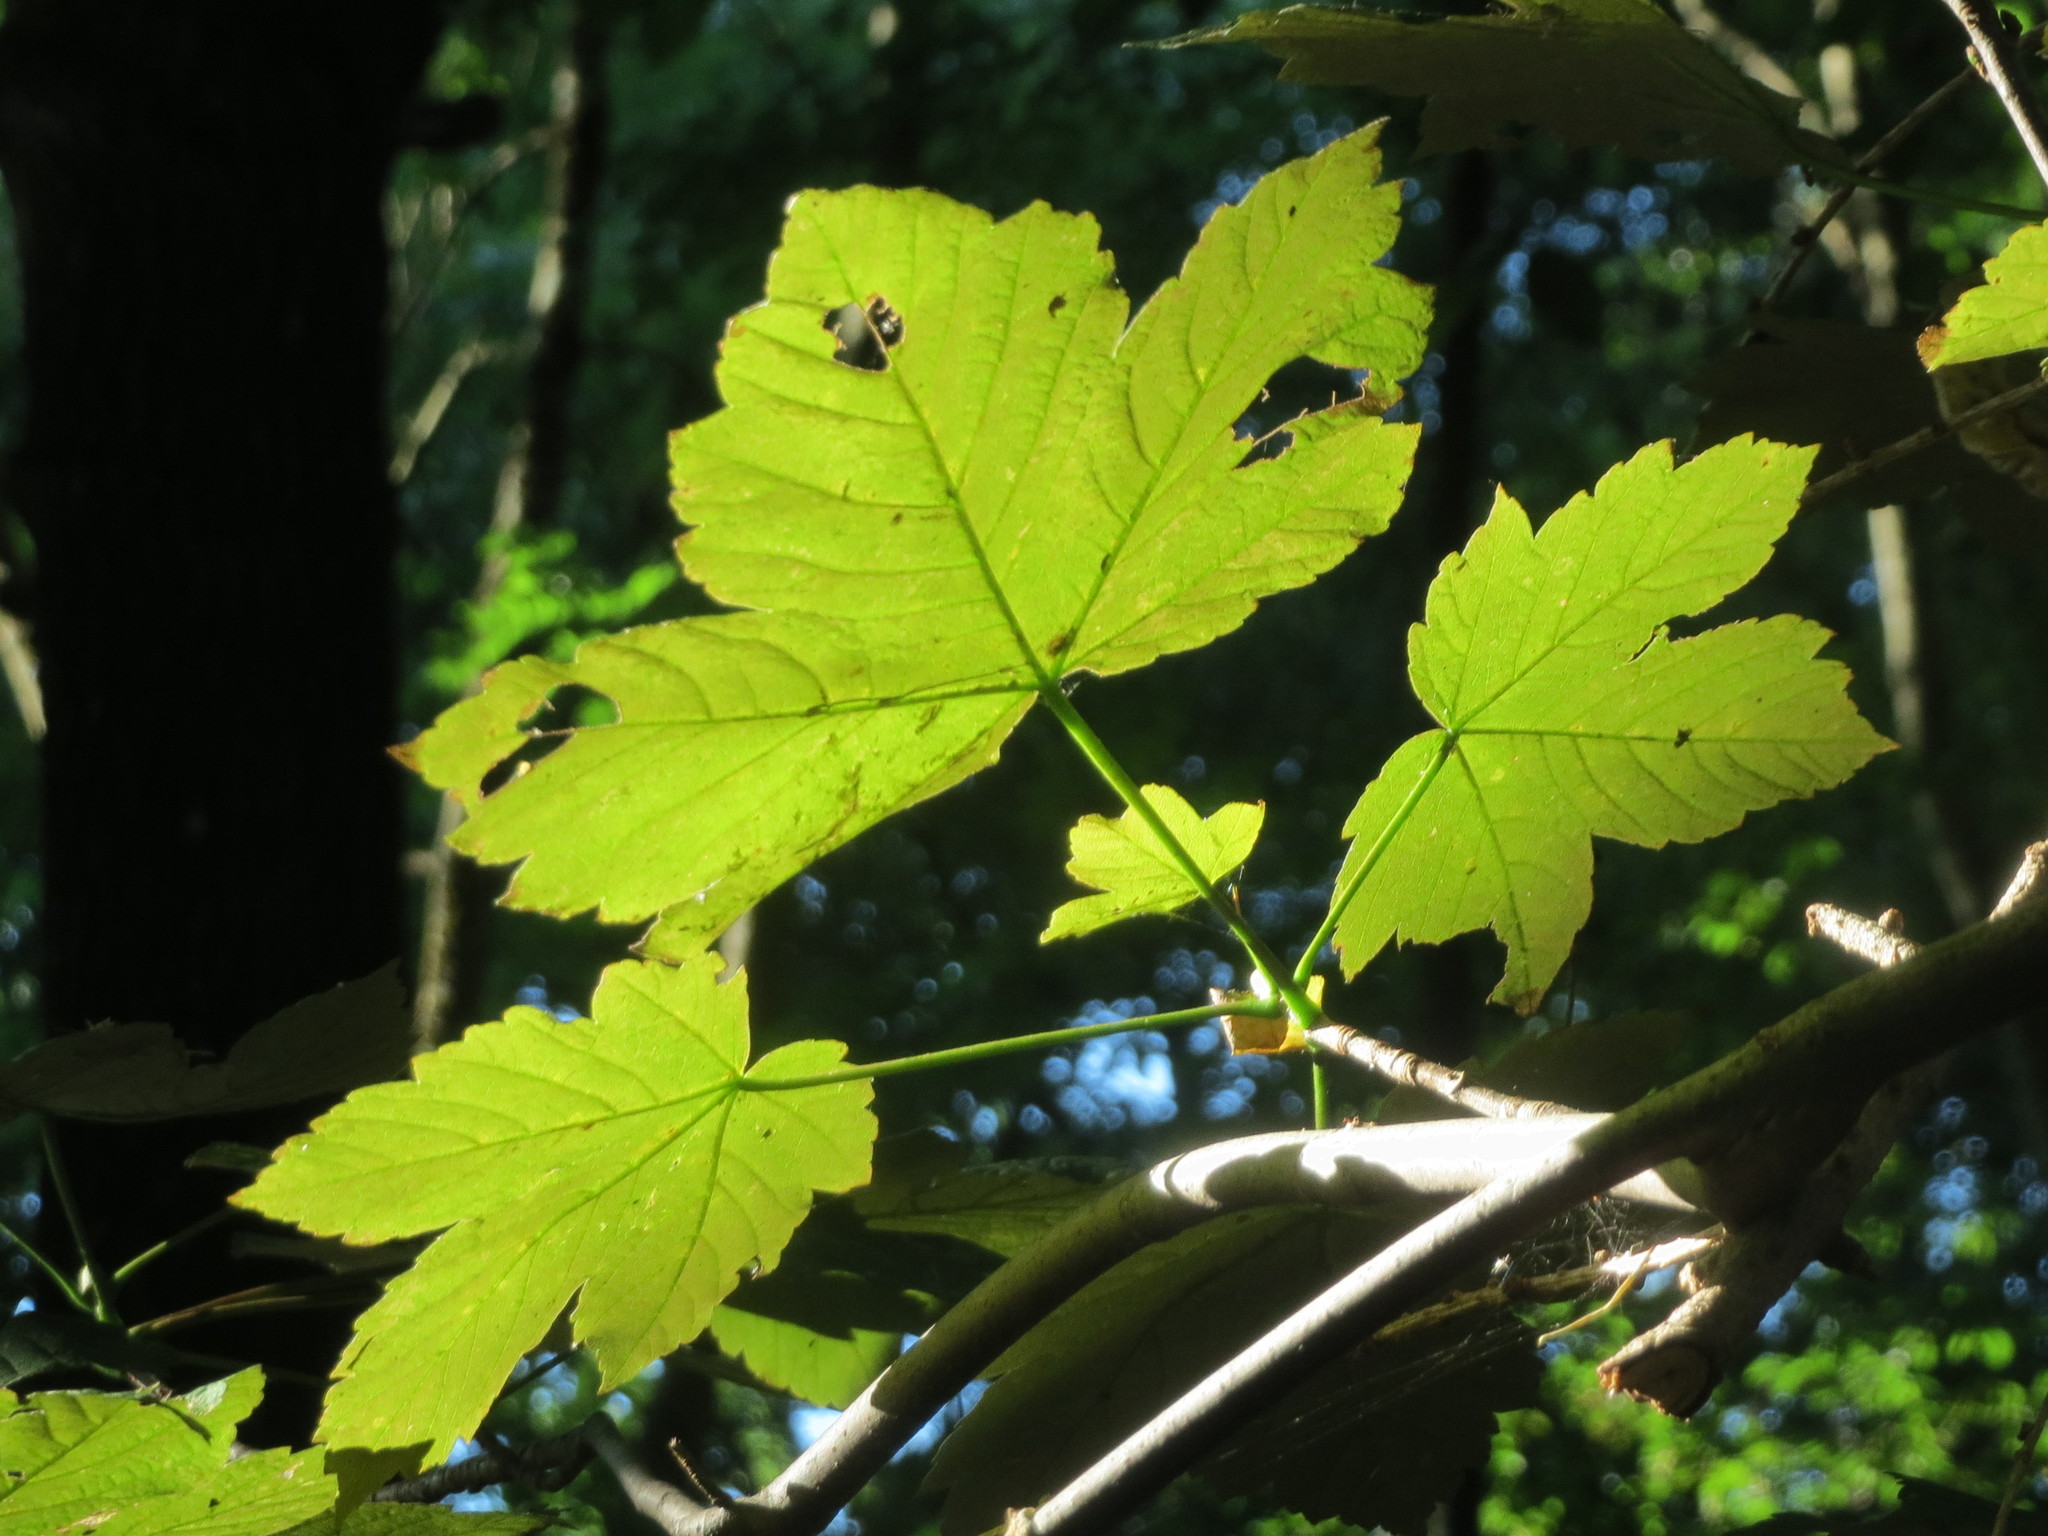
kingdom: Plantae
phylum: Tracheophyta
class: Magnoliopsida
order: Sapindales
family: Sapindaceae
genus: Acer
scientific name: Acer pseudoplatanus
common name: Sycamore
